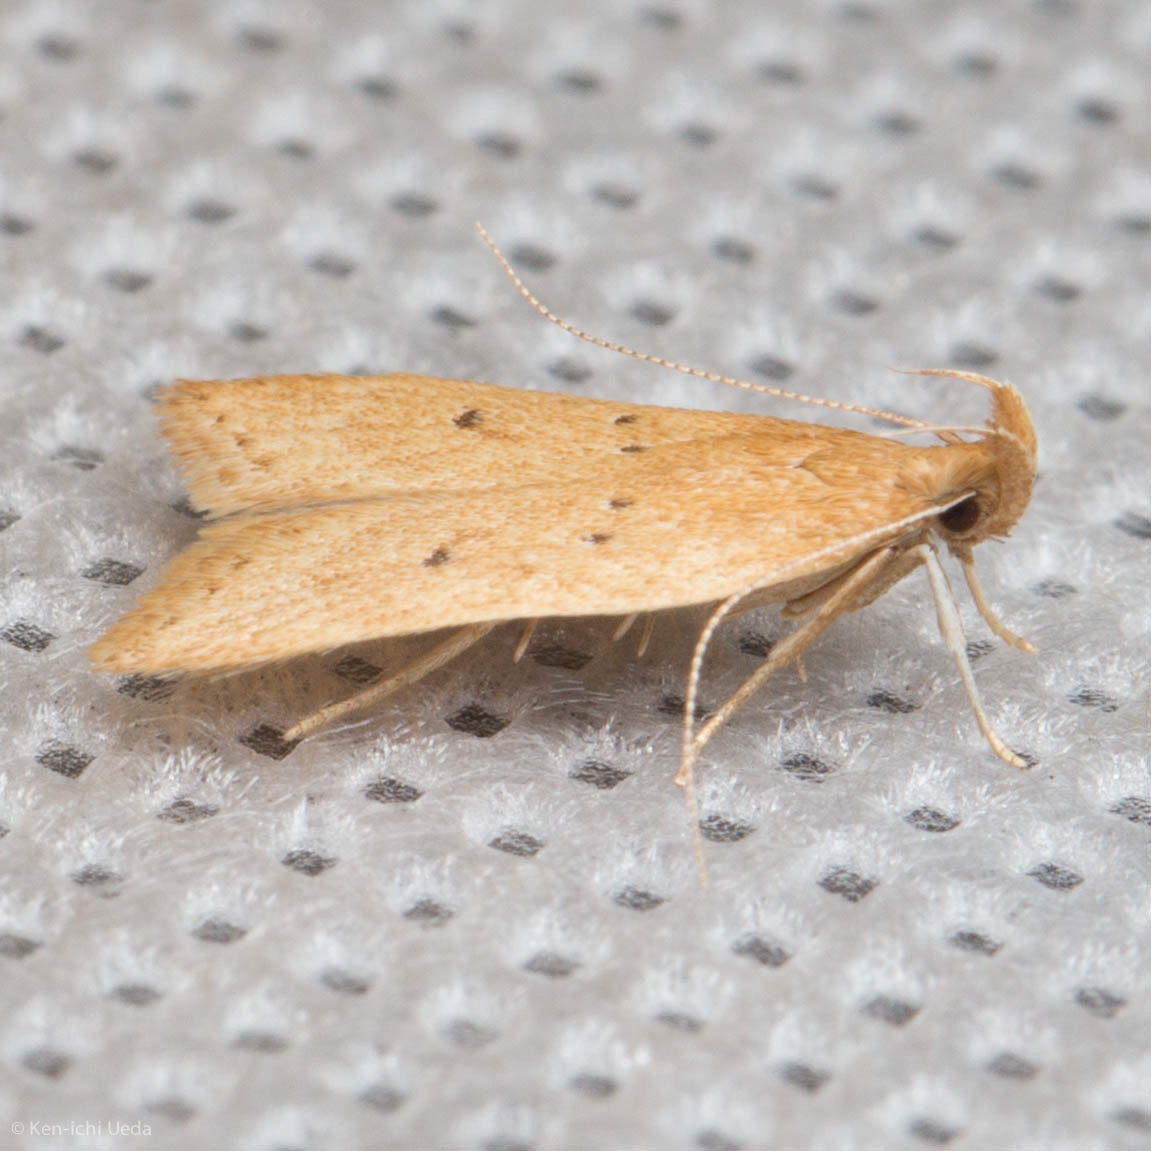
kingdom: Animalia
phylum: Arthropoda
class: Insecta
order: Lepidoptera
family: Gelechiidae
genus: Helcystogramma
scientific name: Helcystogramma badia
